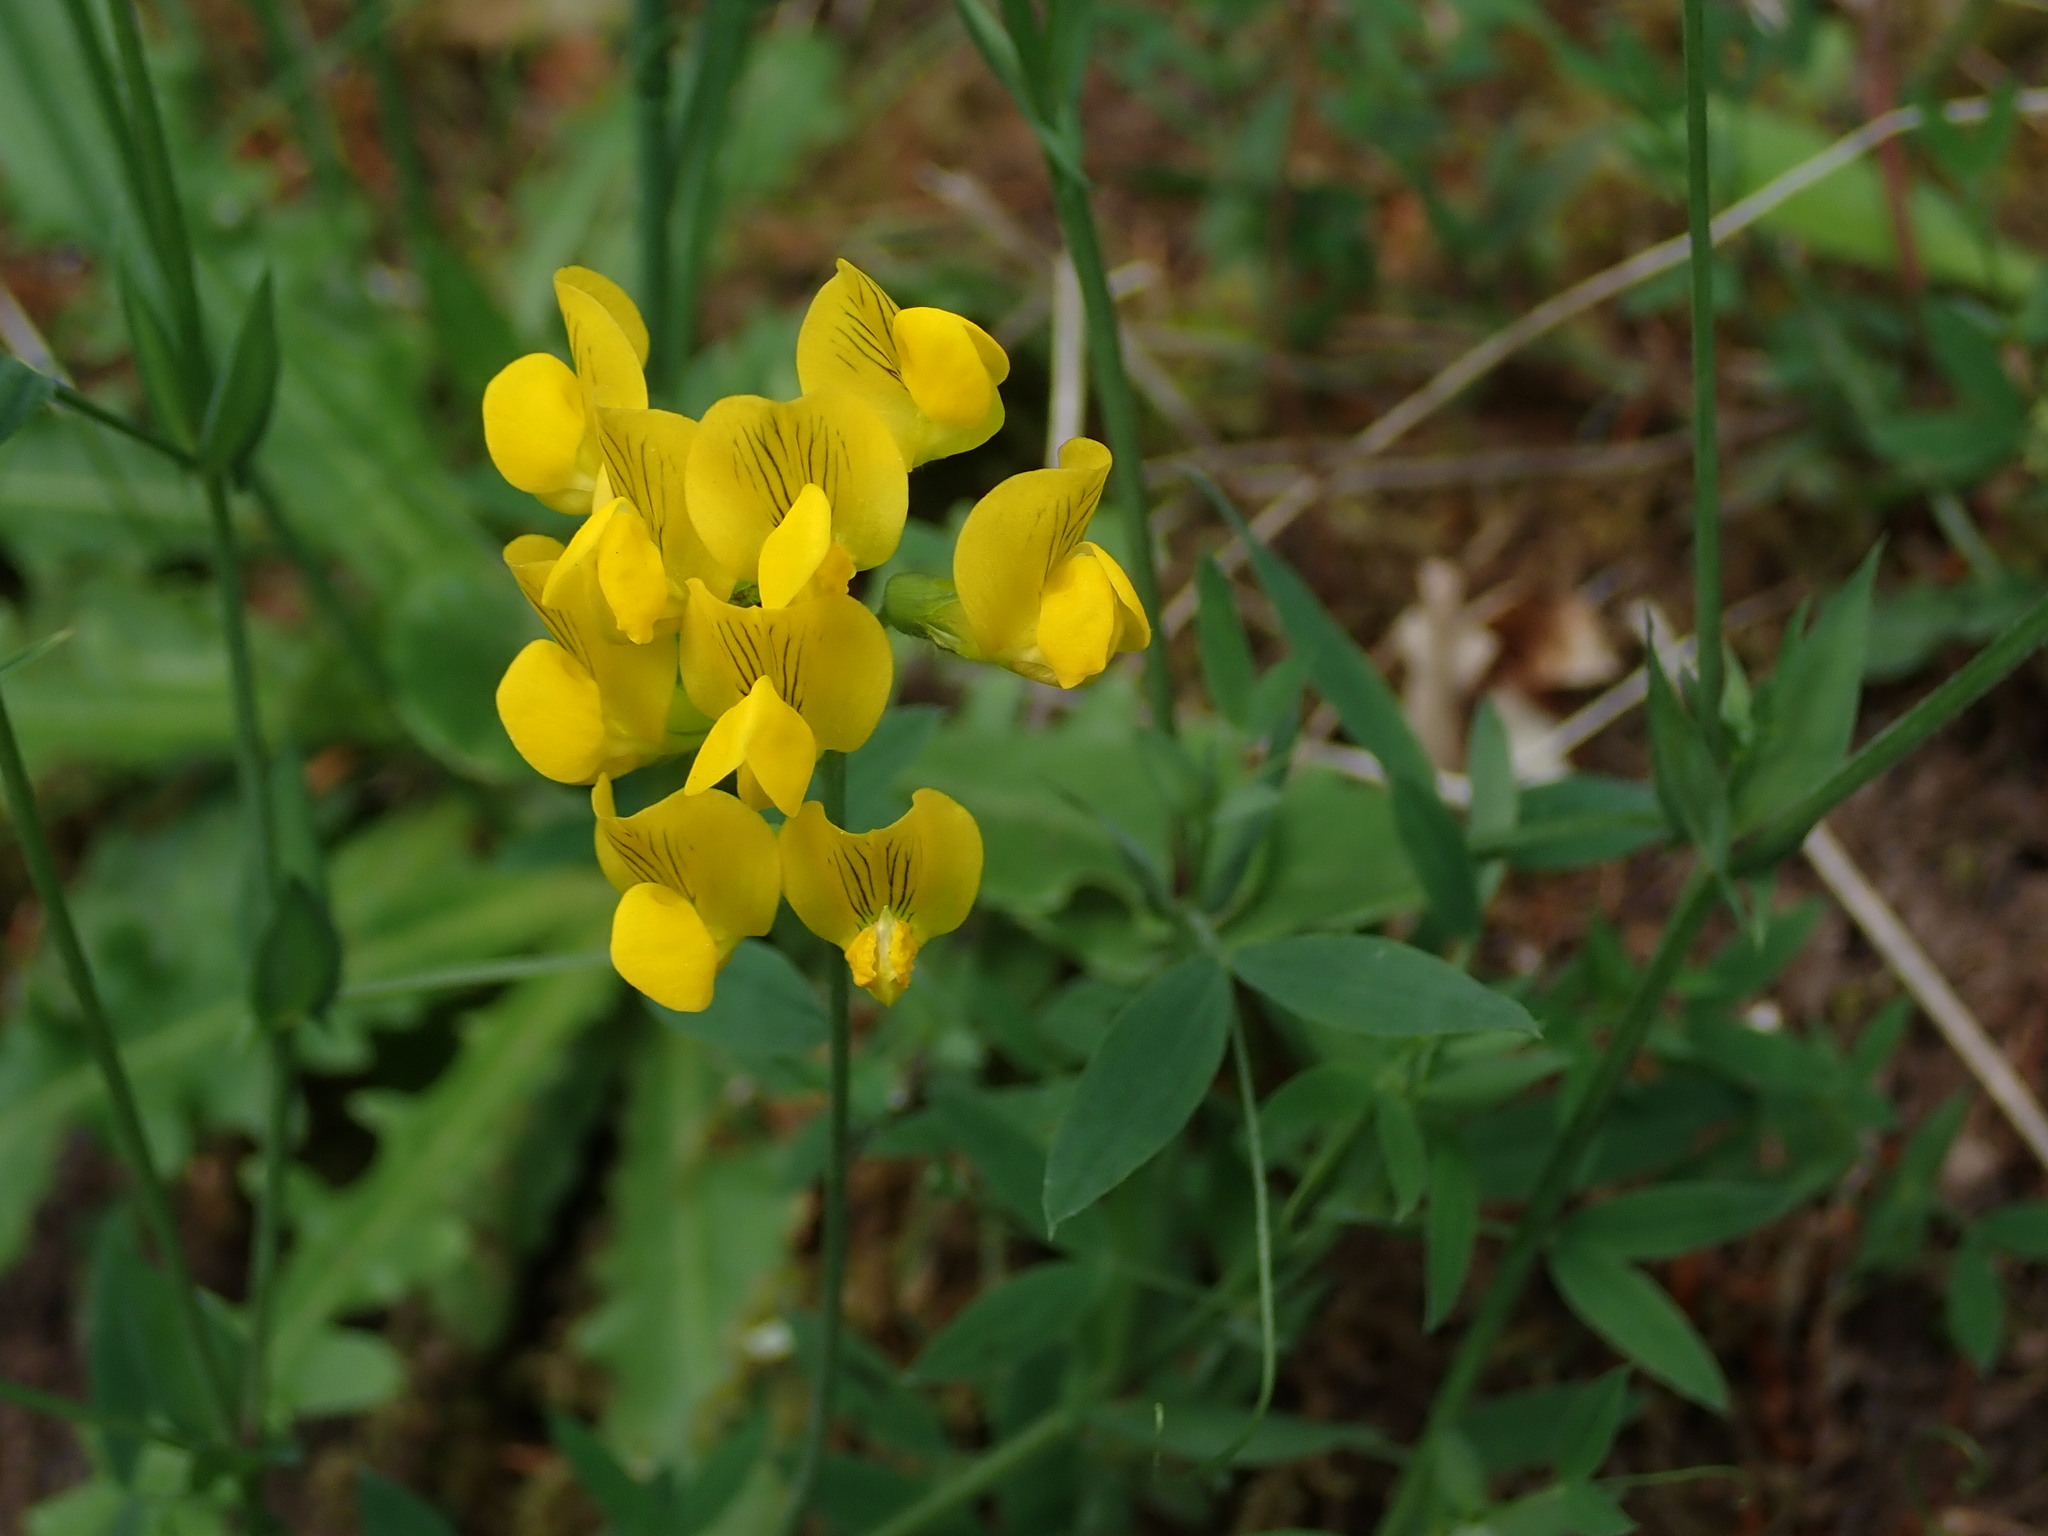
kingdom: Plantae
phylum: Tracheophyta
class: Magnoliopsida
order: Fabales
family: Fabaceae
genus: Lathyrus
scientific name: Lathyrus pratensis
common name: Meadow vetchling
